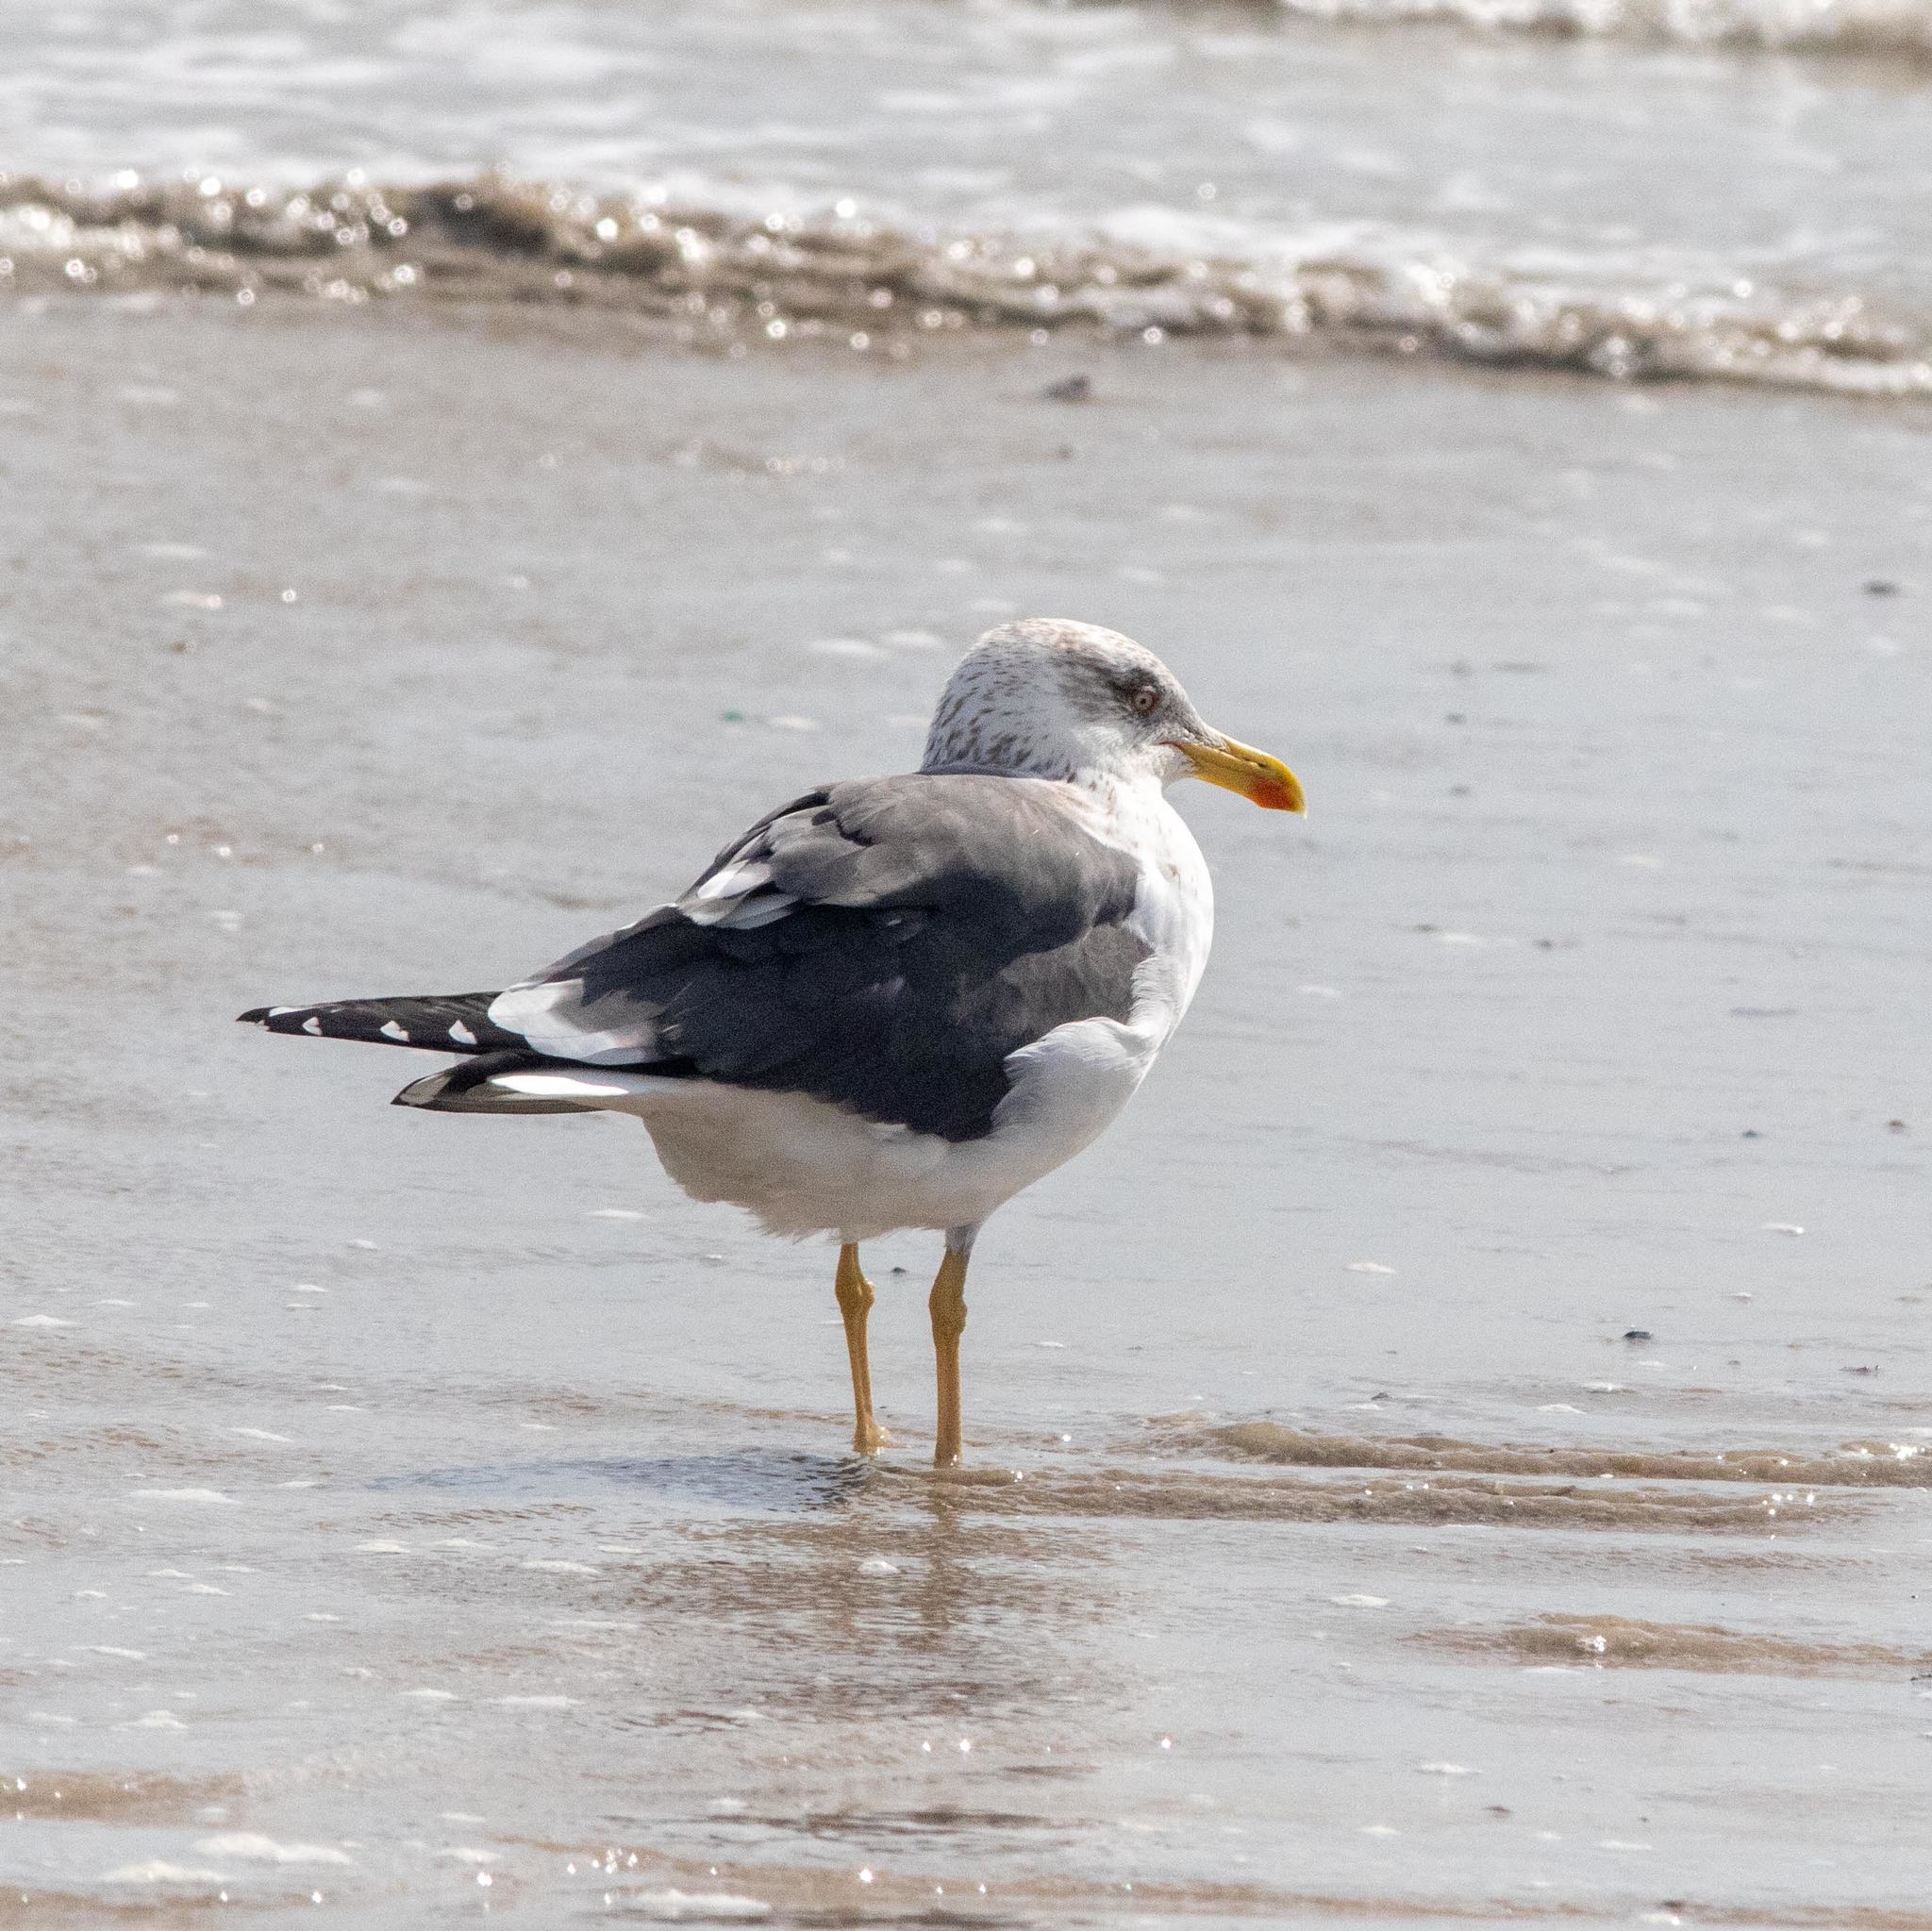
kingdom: Animalia
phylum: Chordata
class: Aves
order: Charadriiformes
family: Laridae
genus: Larus
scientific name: Larus fuscus
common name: Lesser black-backed gull
